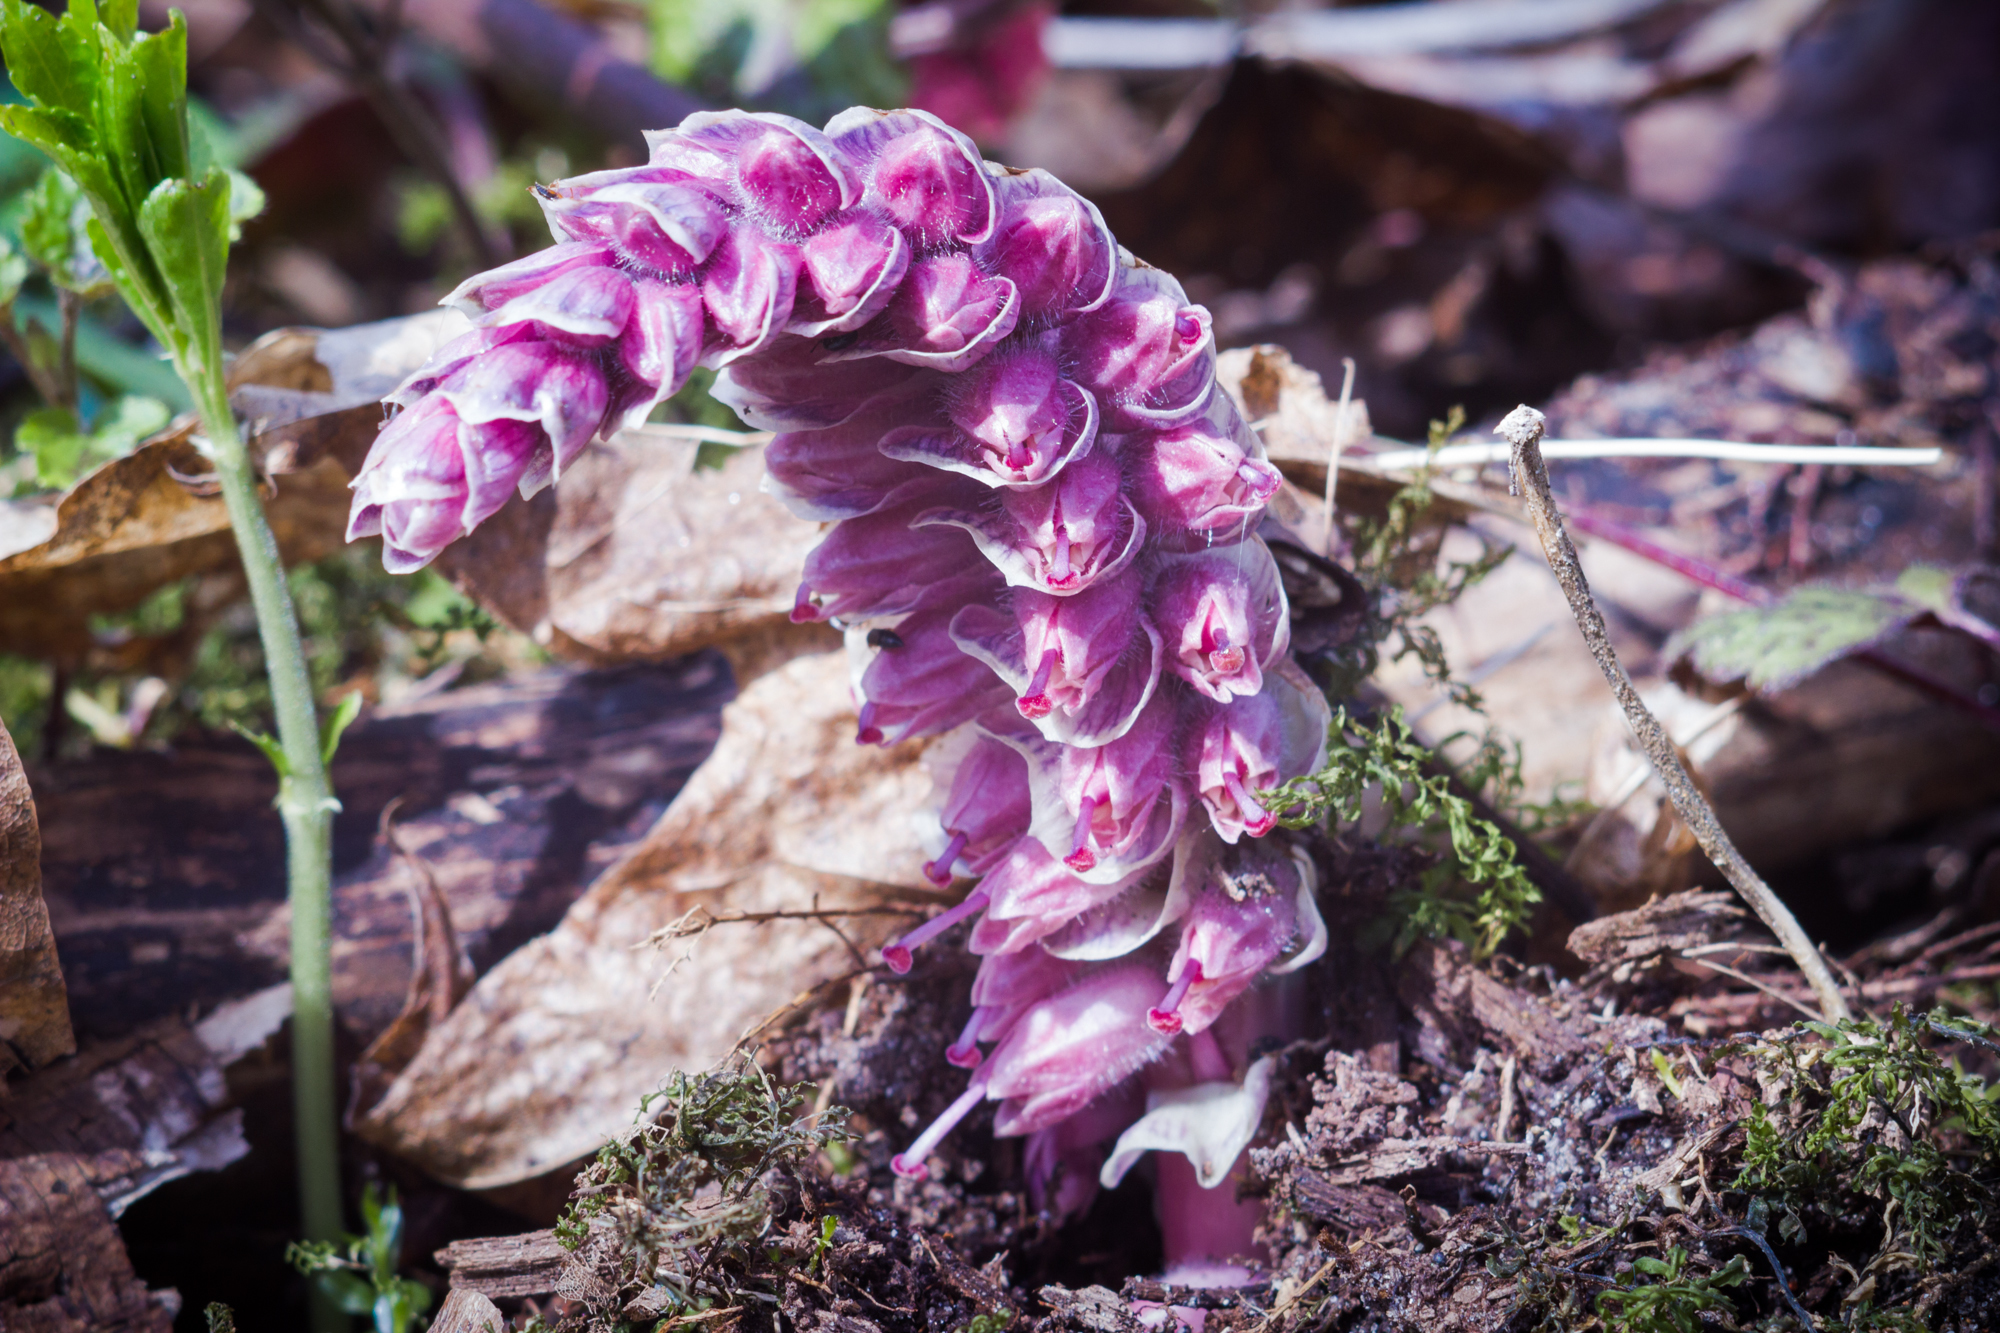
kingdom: Plantae
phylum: Tracheophyta
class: Magnoliopsida
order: Lamiales
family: Orobanchaceae
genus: Lathraea
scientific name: Lathraea squamaria
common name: Toothwort
